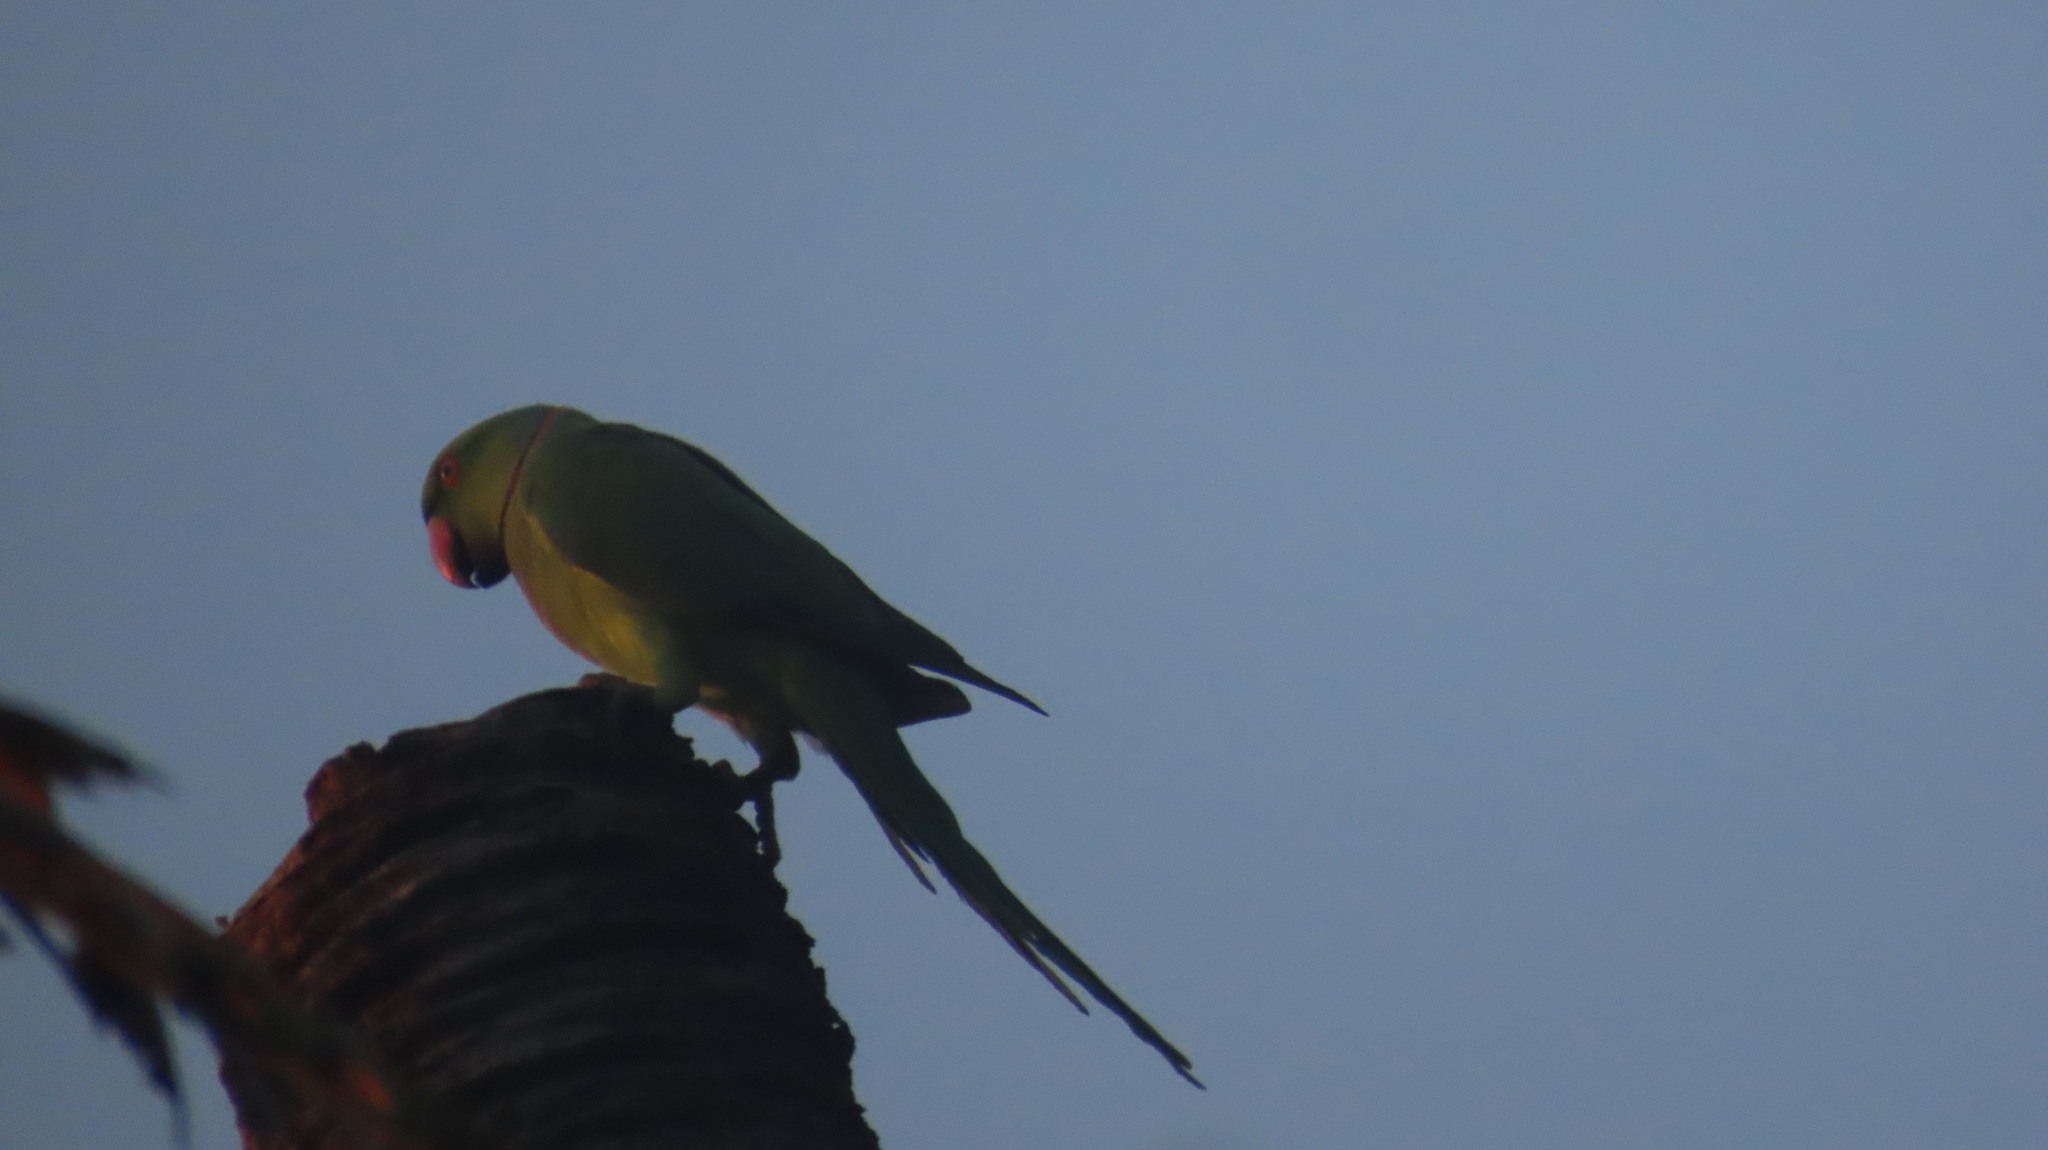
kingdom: Animalia
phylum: Chordata
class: Aves
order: Psittaciformes
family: Psittacidae
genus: Psittacula
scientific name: Psittacula krameri
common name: Rose-ringed parakeet
